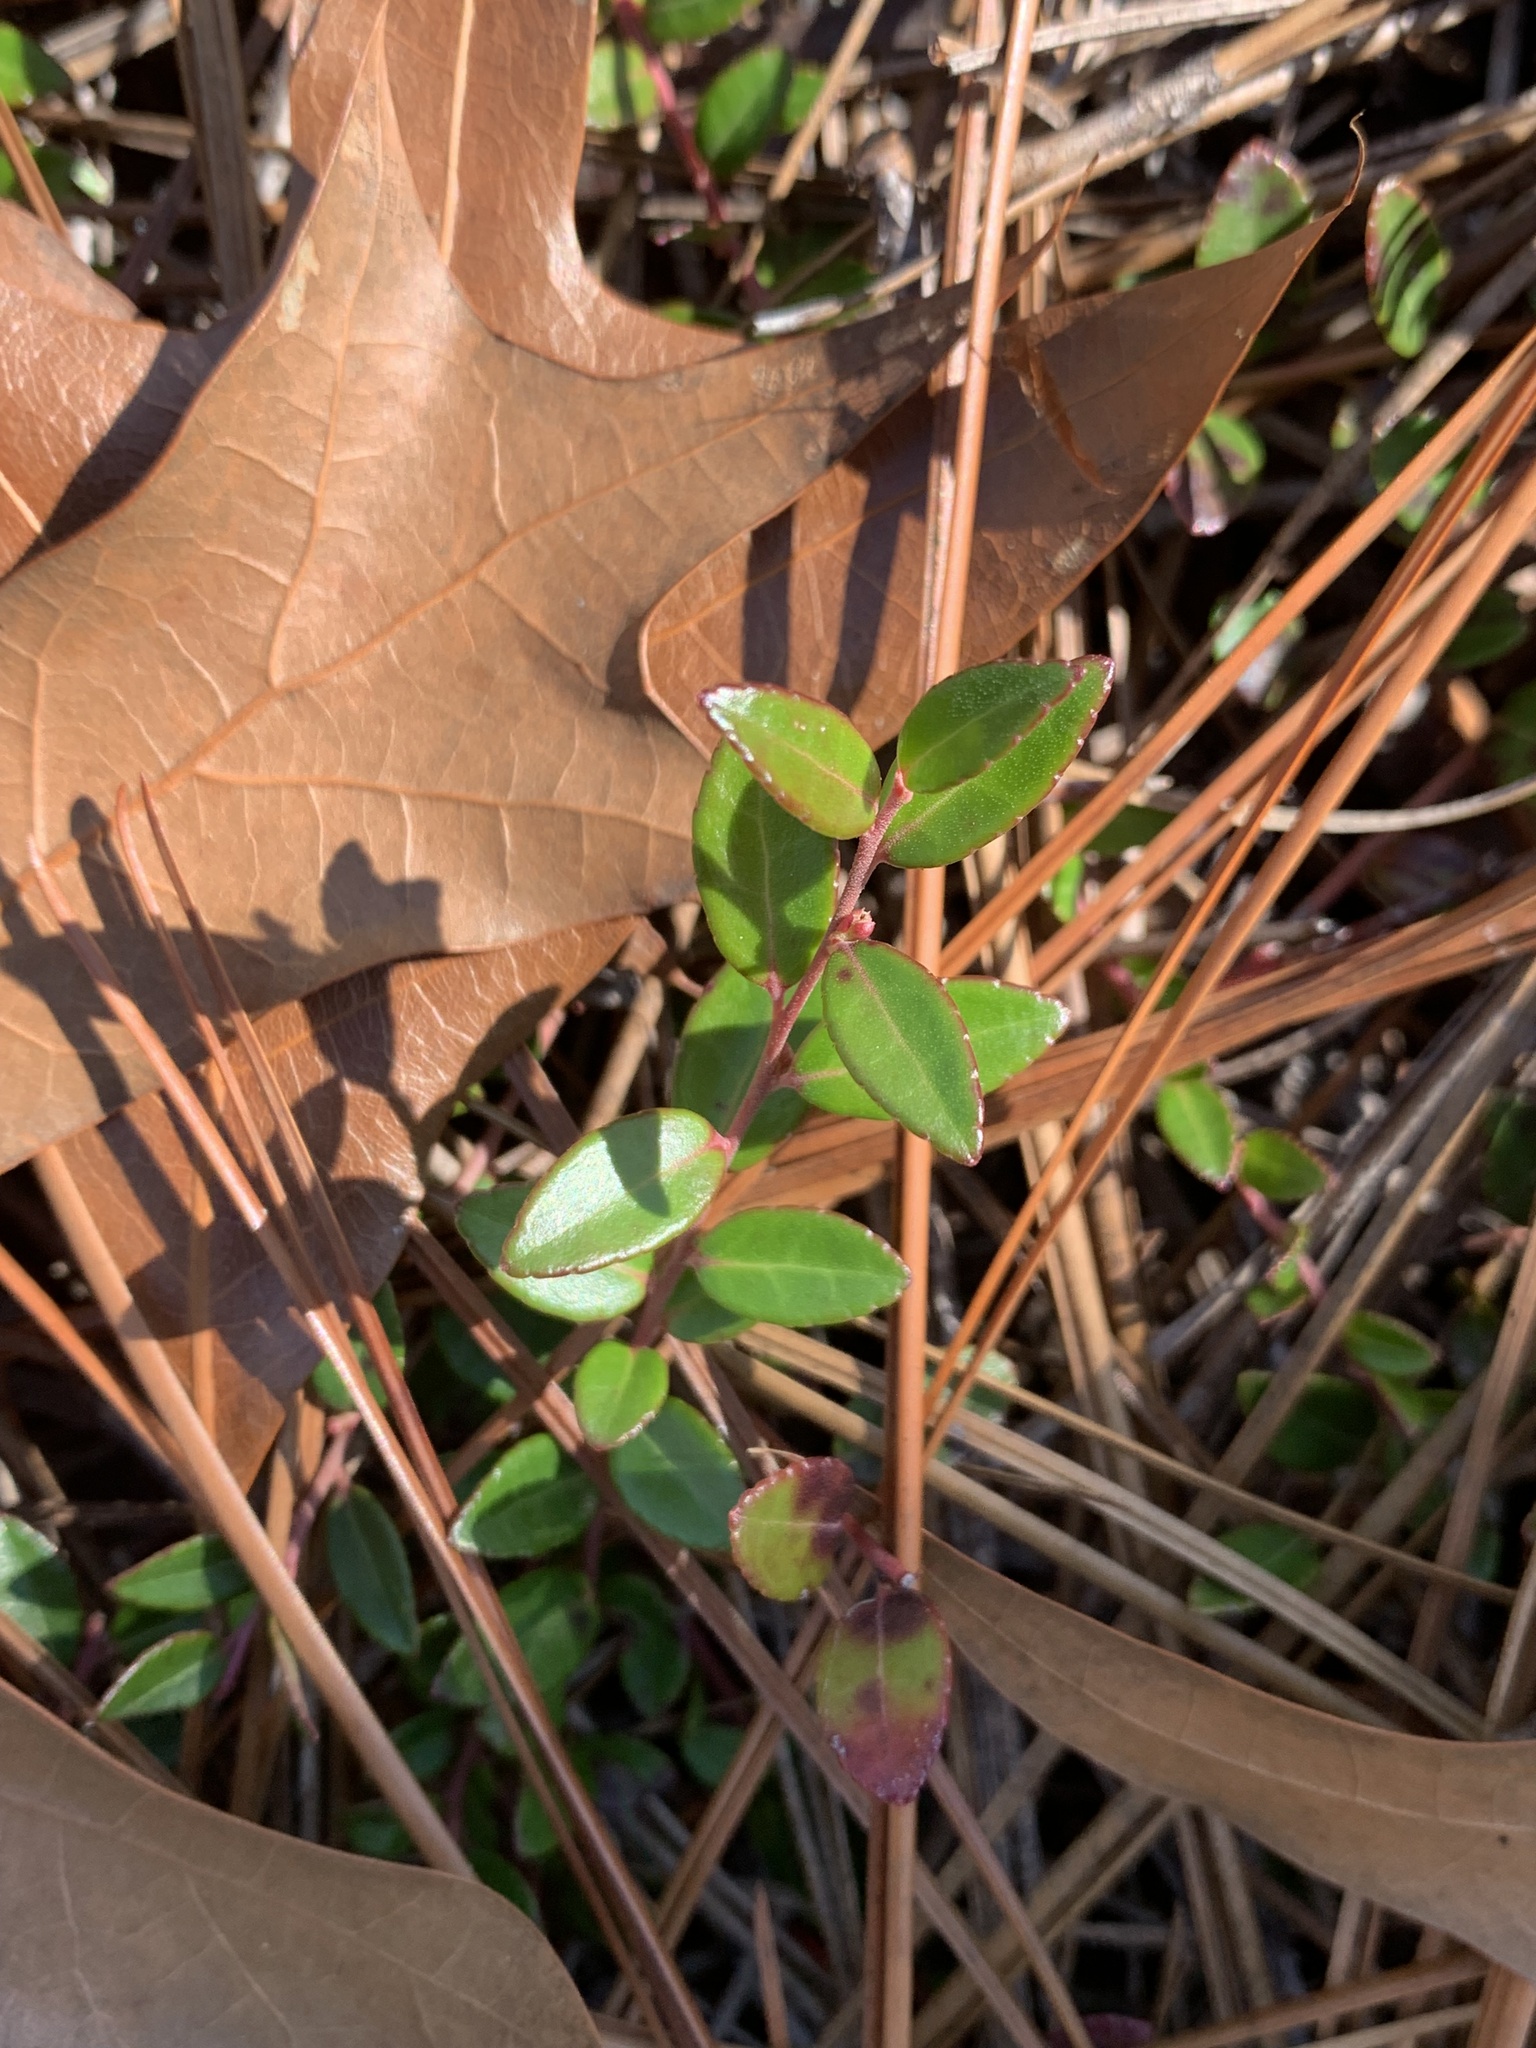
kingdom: Plantae
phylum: Tracheophyta
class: Magnoliopsida
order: Ericales
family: Ericaceae
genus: Vaccinium
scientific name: Vaccinium crassifolium
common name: Creeping blueberry
